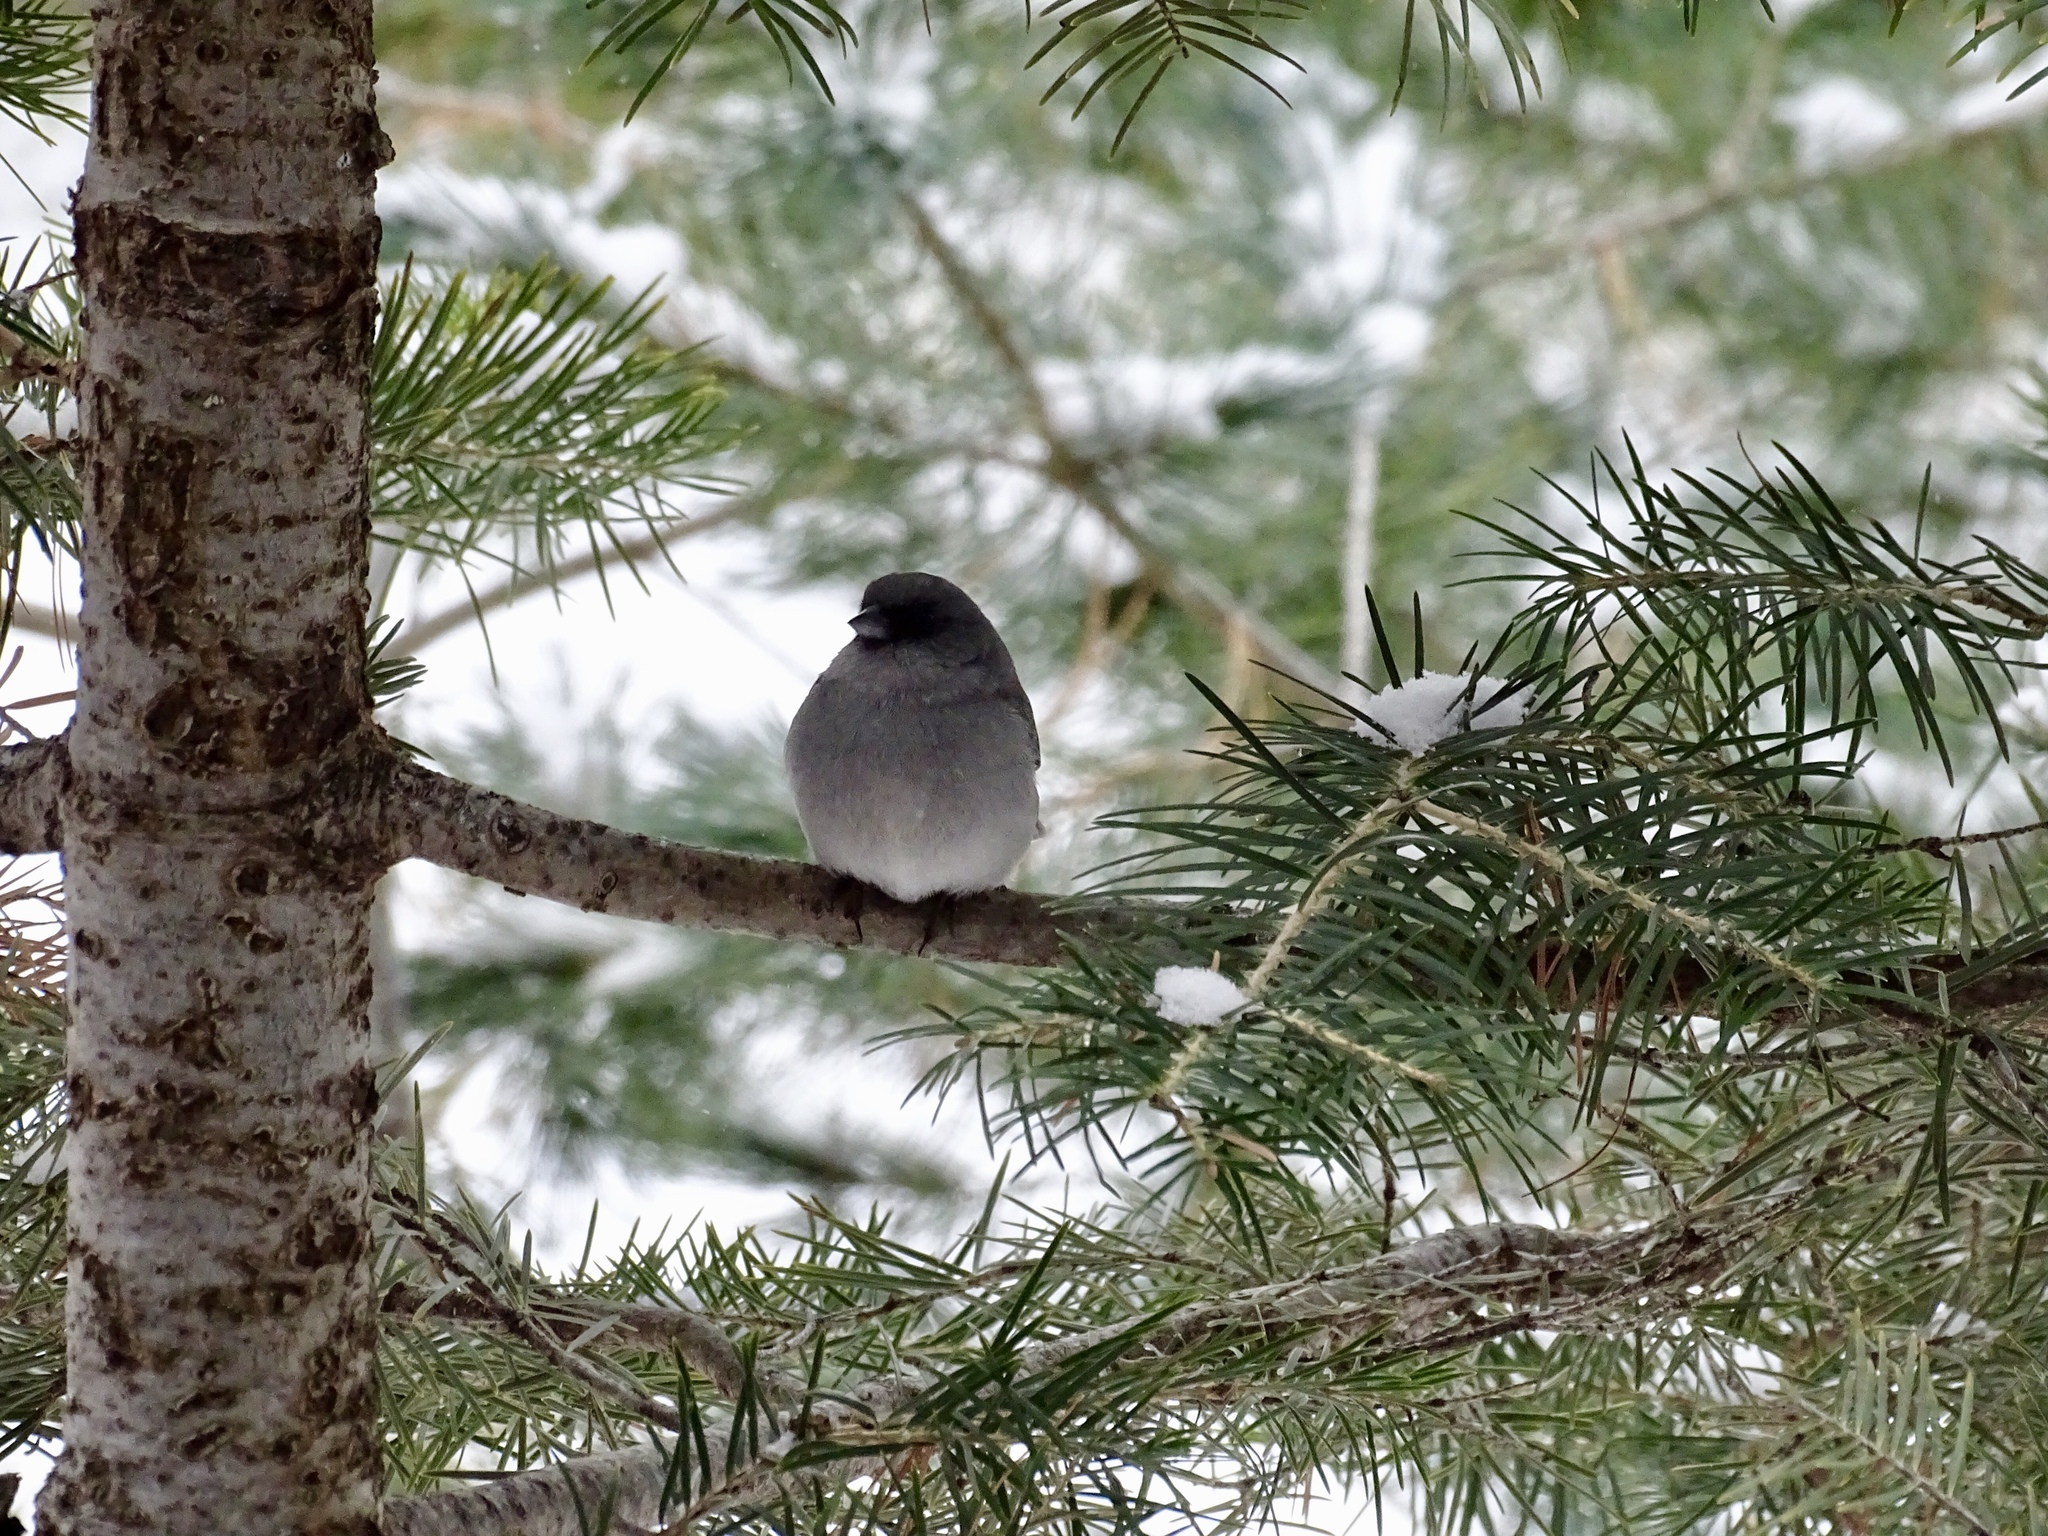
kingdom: Animalia
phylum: Chordata
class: Aves
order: Passeriformes
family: Passerellidae
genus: Junco
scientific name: Junco hyemalis
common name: Dark-eyed junco
